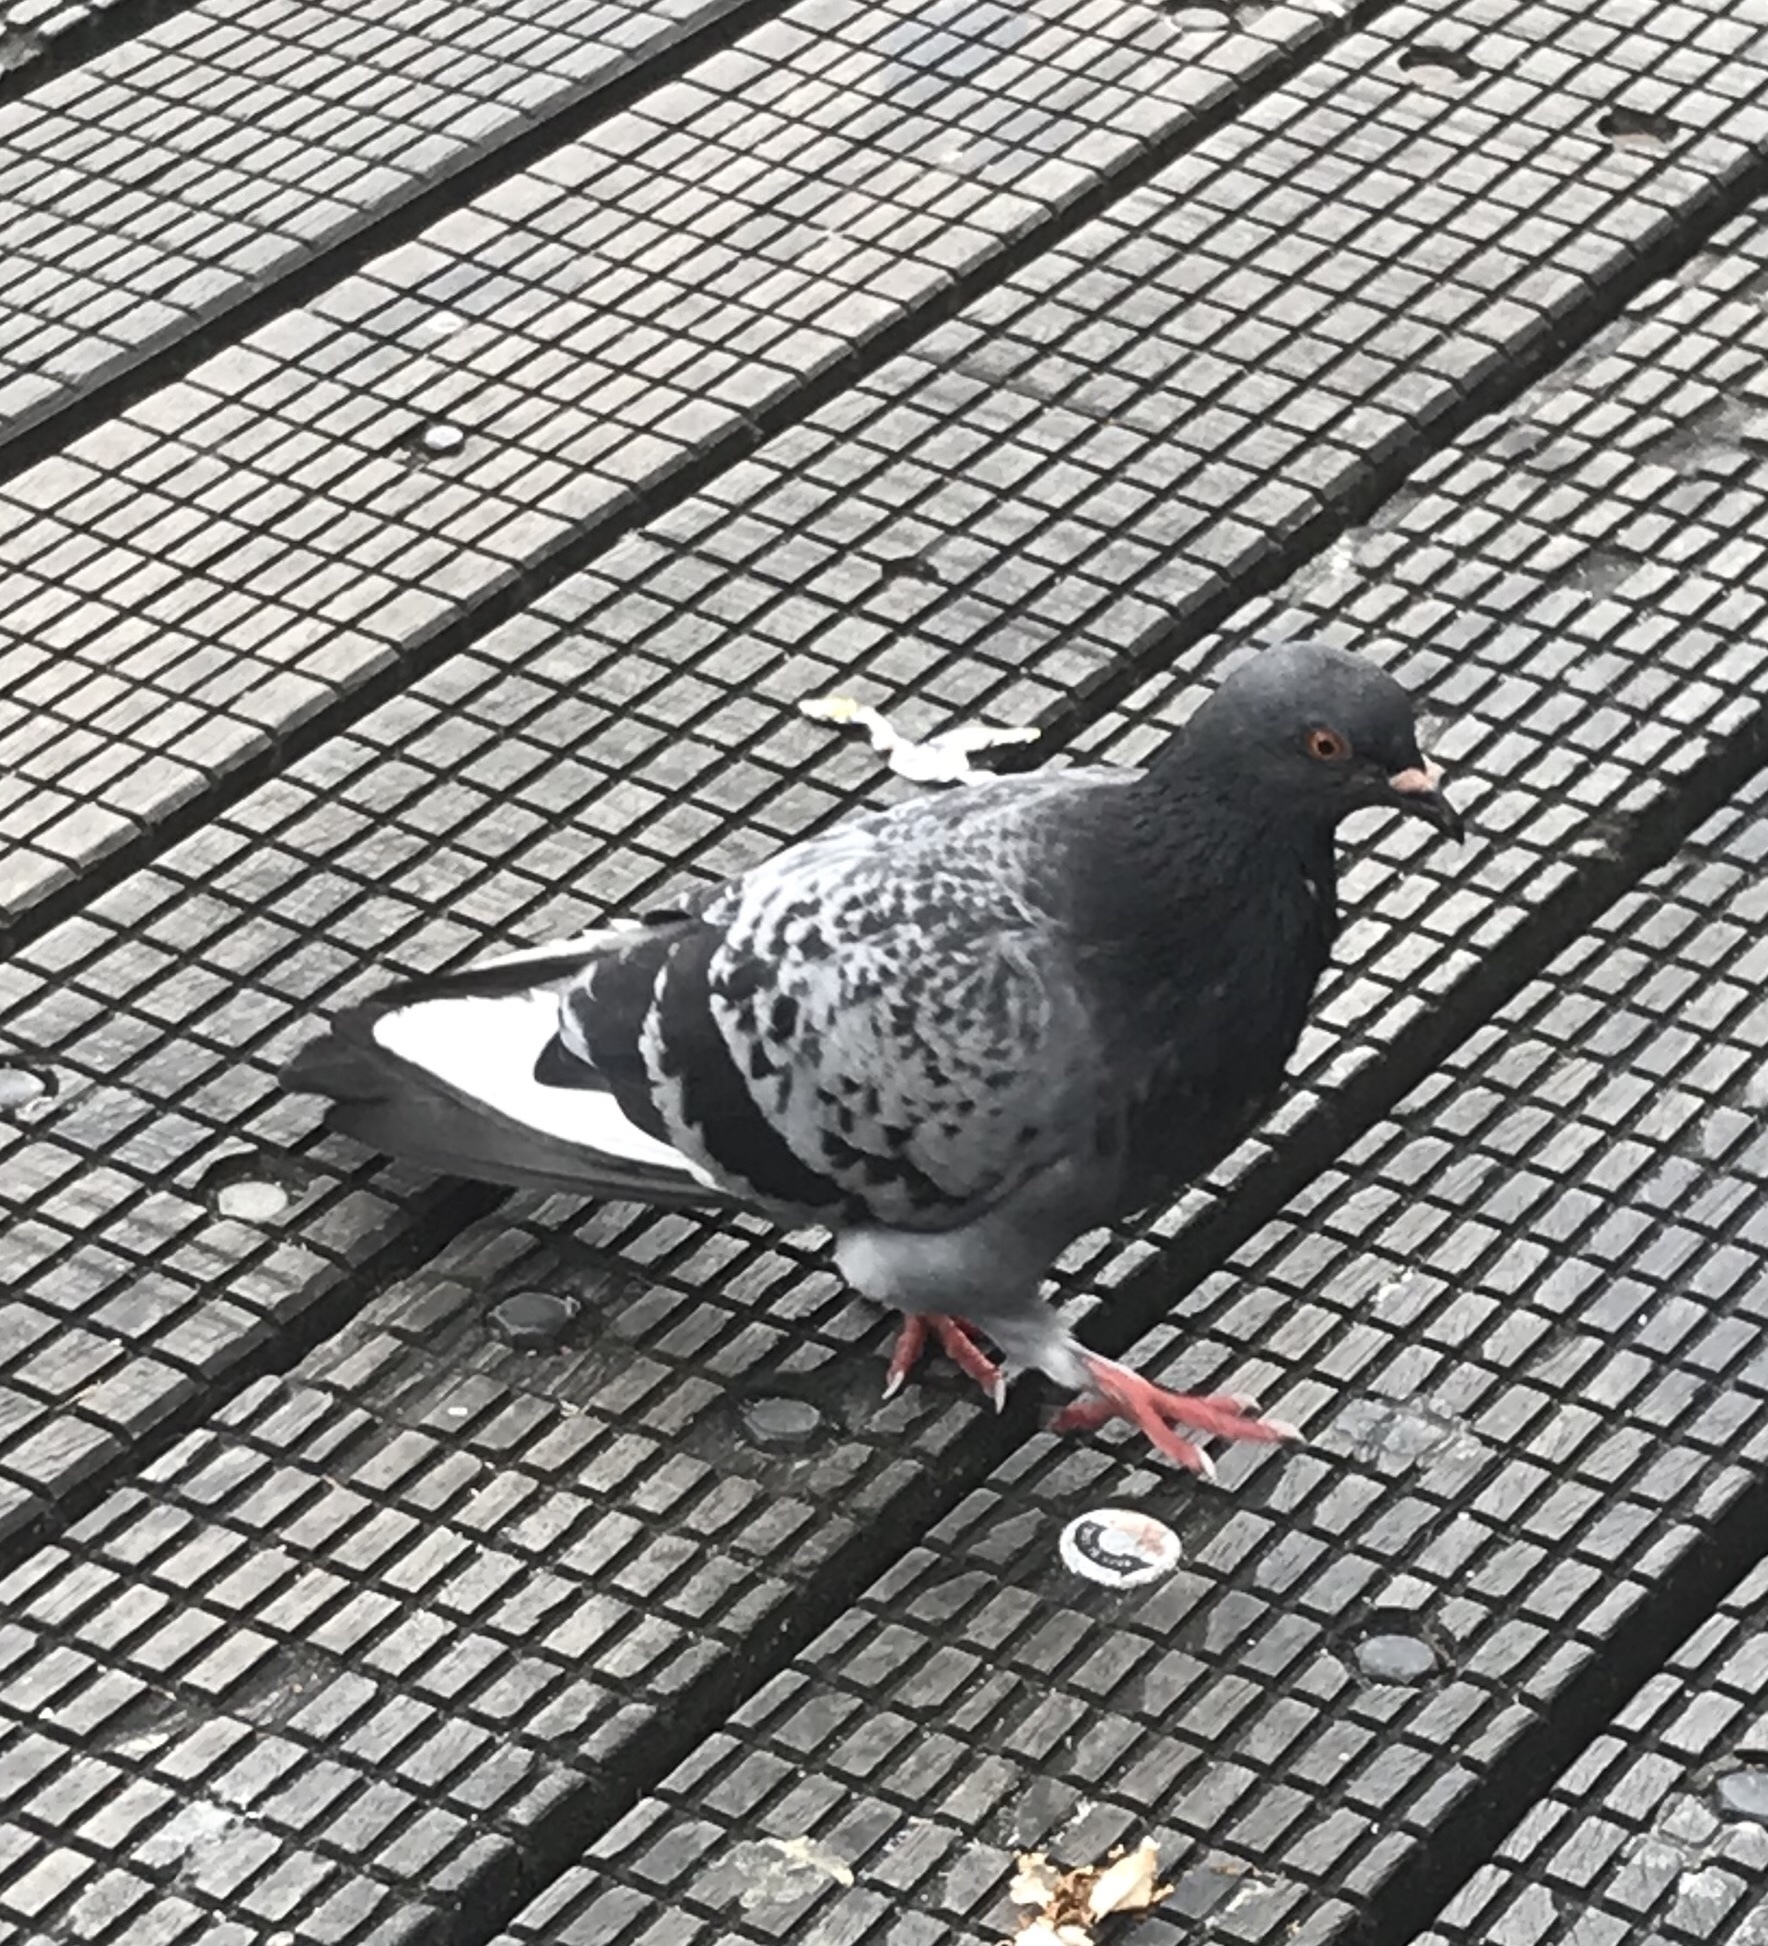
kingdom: Animalia
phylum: Chordata
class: Aves
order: Columbiformes
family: Columbidae
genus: Columba
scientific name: Columba livia
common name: Rock pigeon
